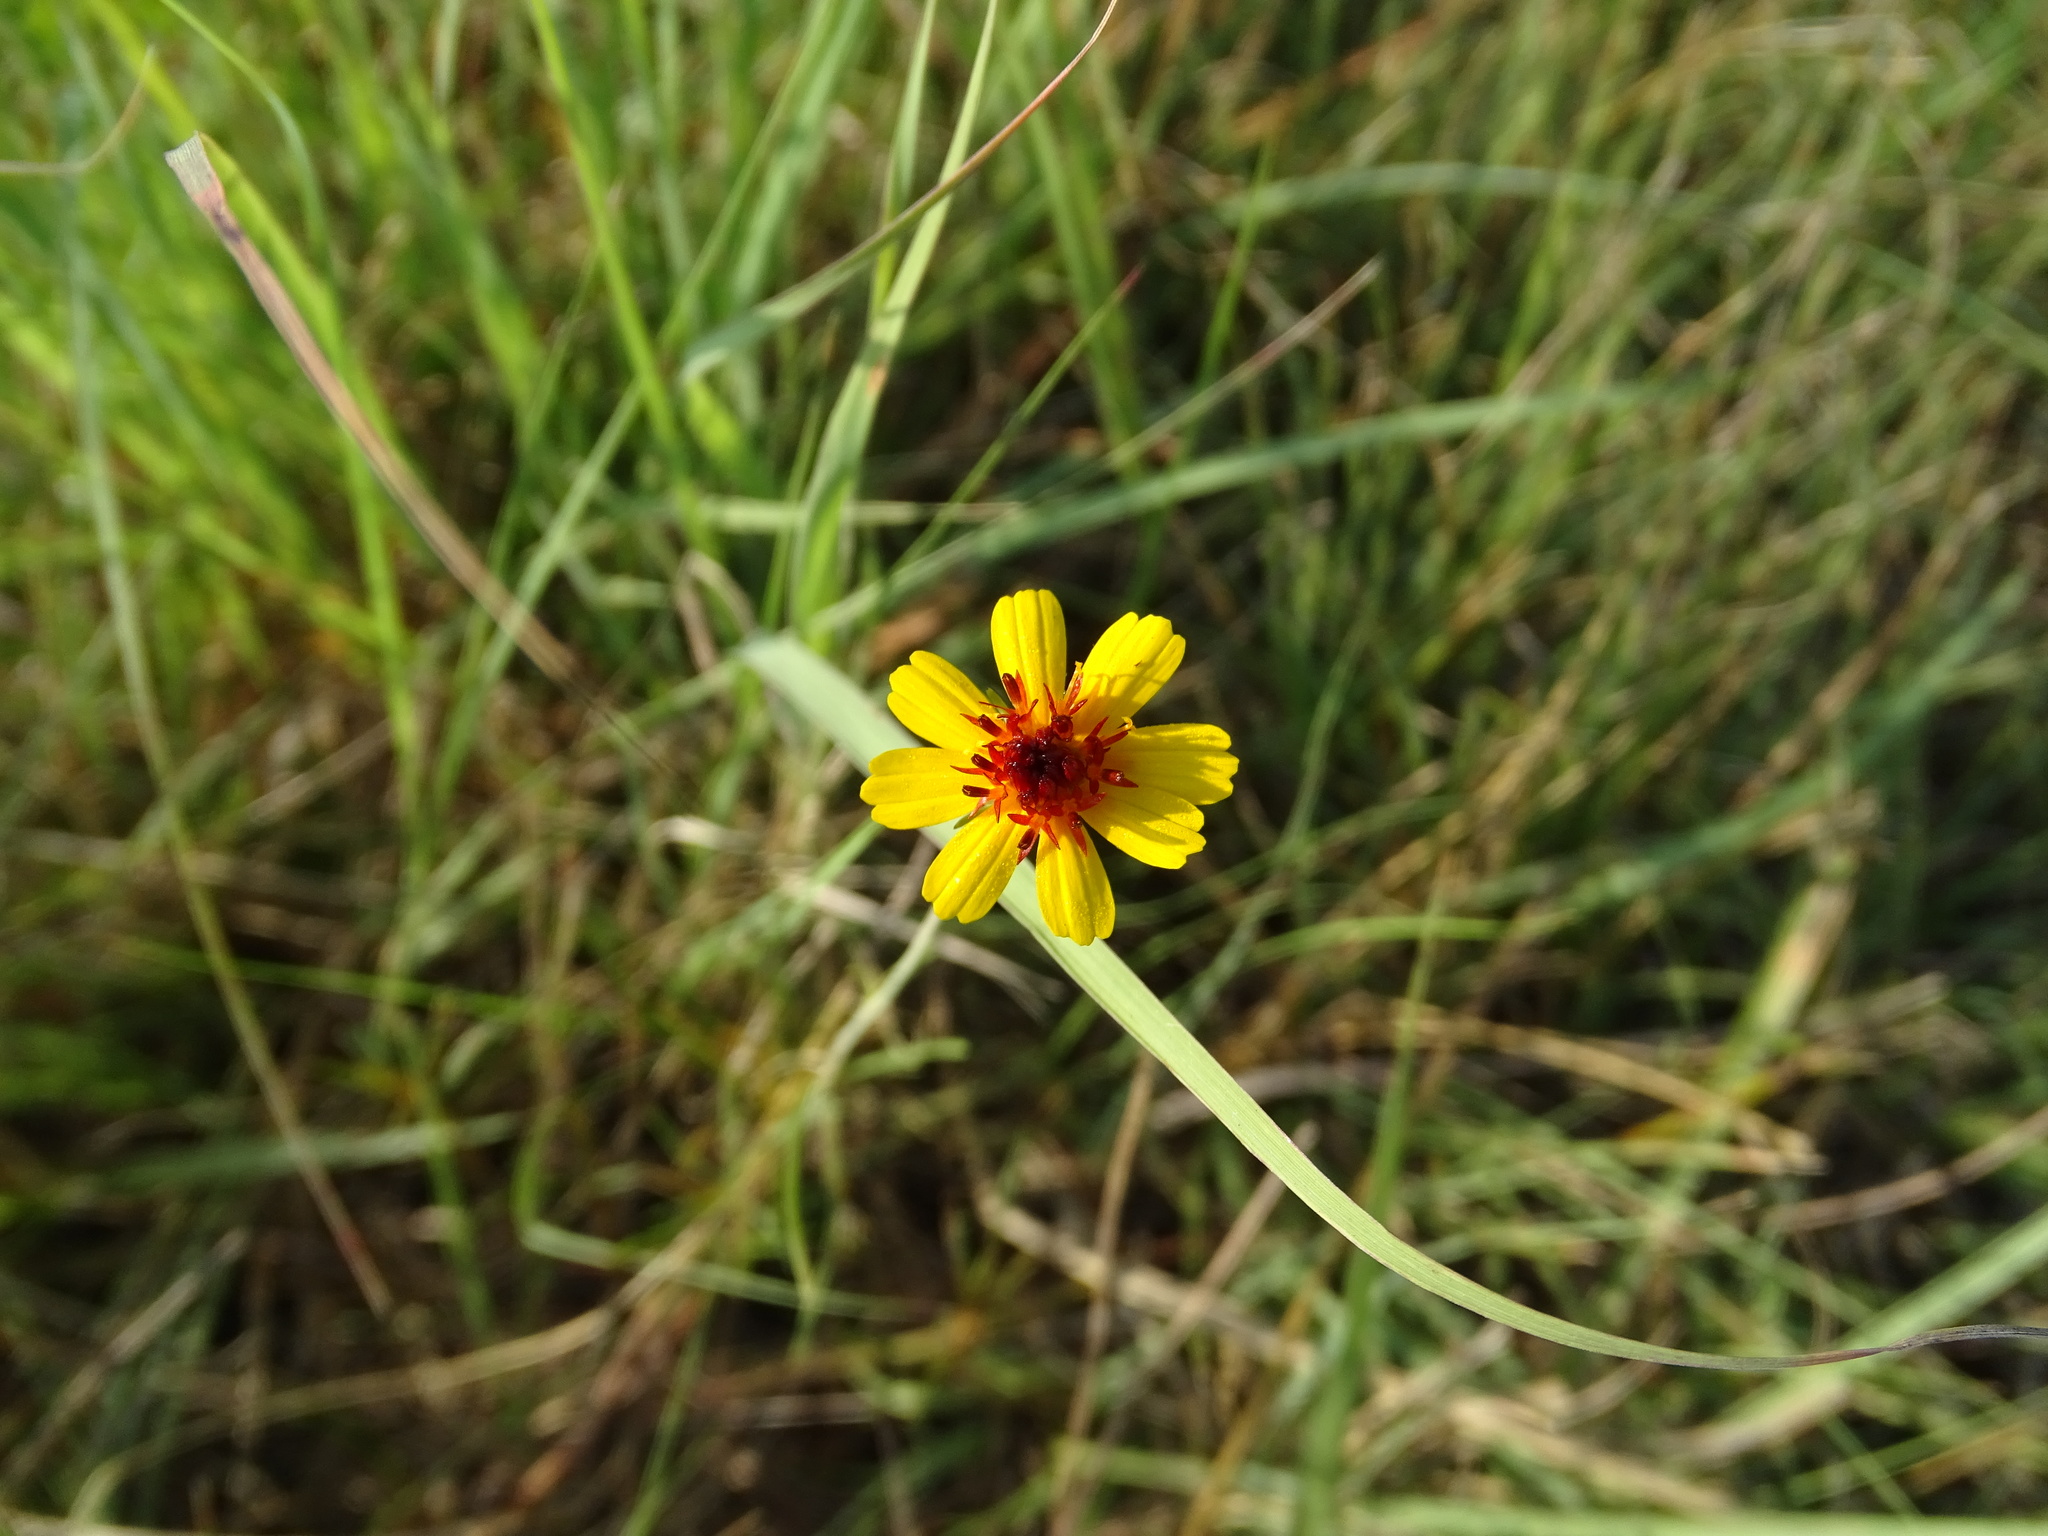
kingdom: Plantae
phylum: Tracheophyta
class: Magnoliopsida
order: Asterales
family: Asteraceae
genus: Thelesperma
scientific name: Thelesperma filifolium
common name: Stiff greenthread
